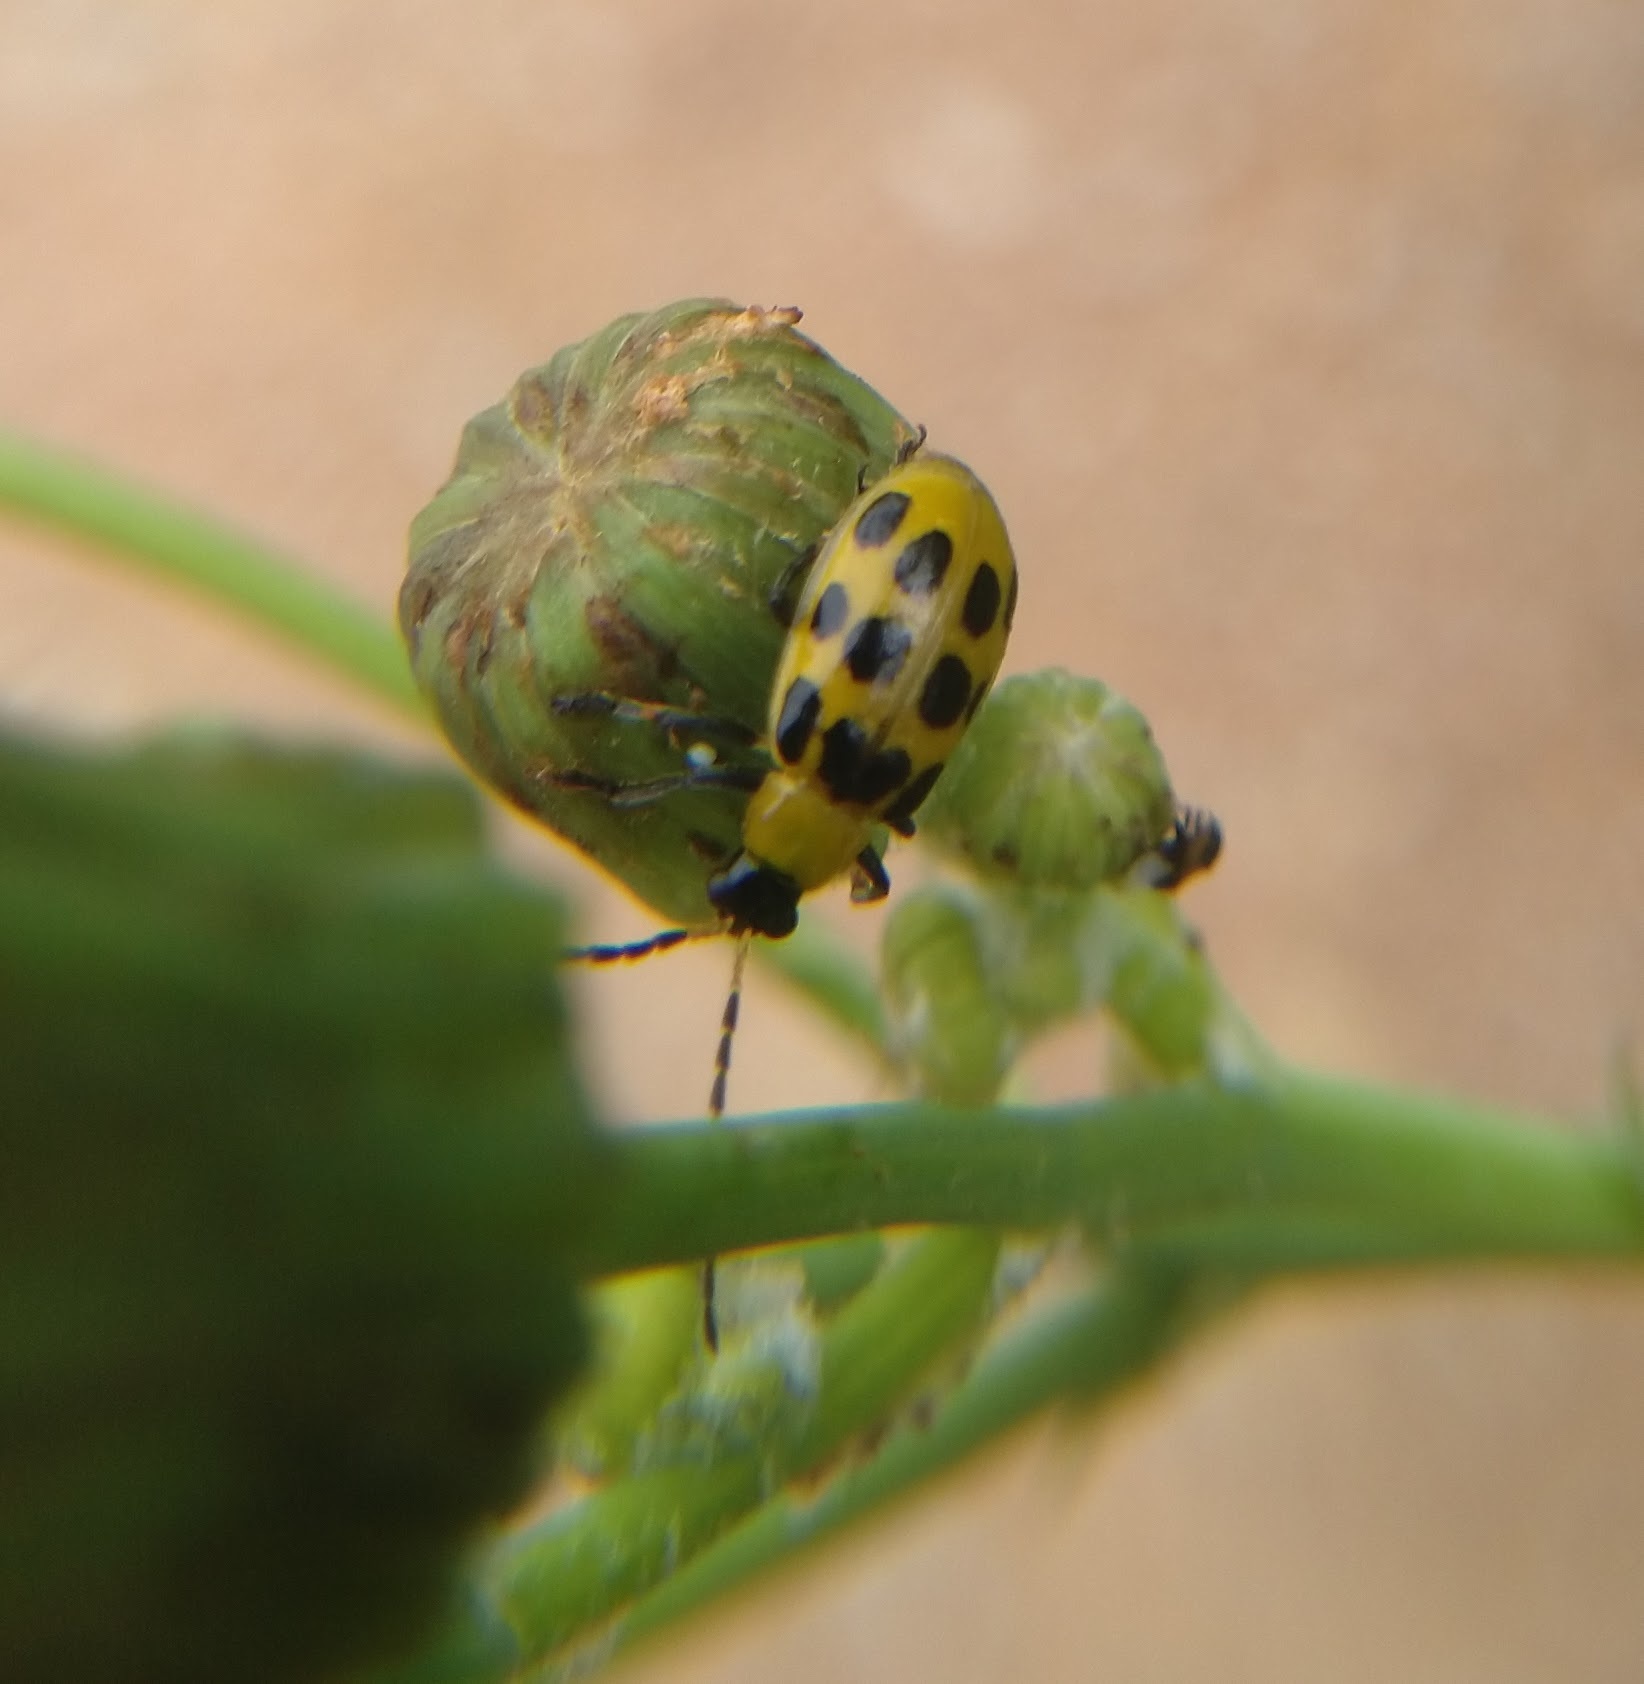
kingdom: Animalia
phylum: Arthropoda
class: Insecta
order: Coleoptera
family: Chrysomelidae
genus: Diabrotica
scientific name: Diabrotica undecimpunctata
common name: Spotted cucumber beetle
